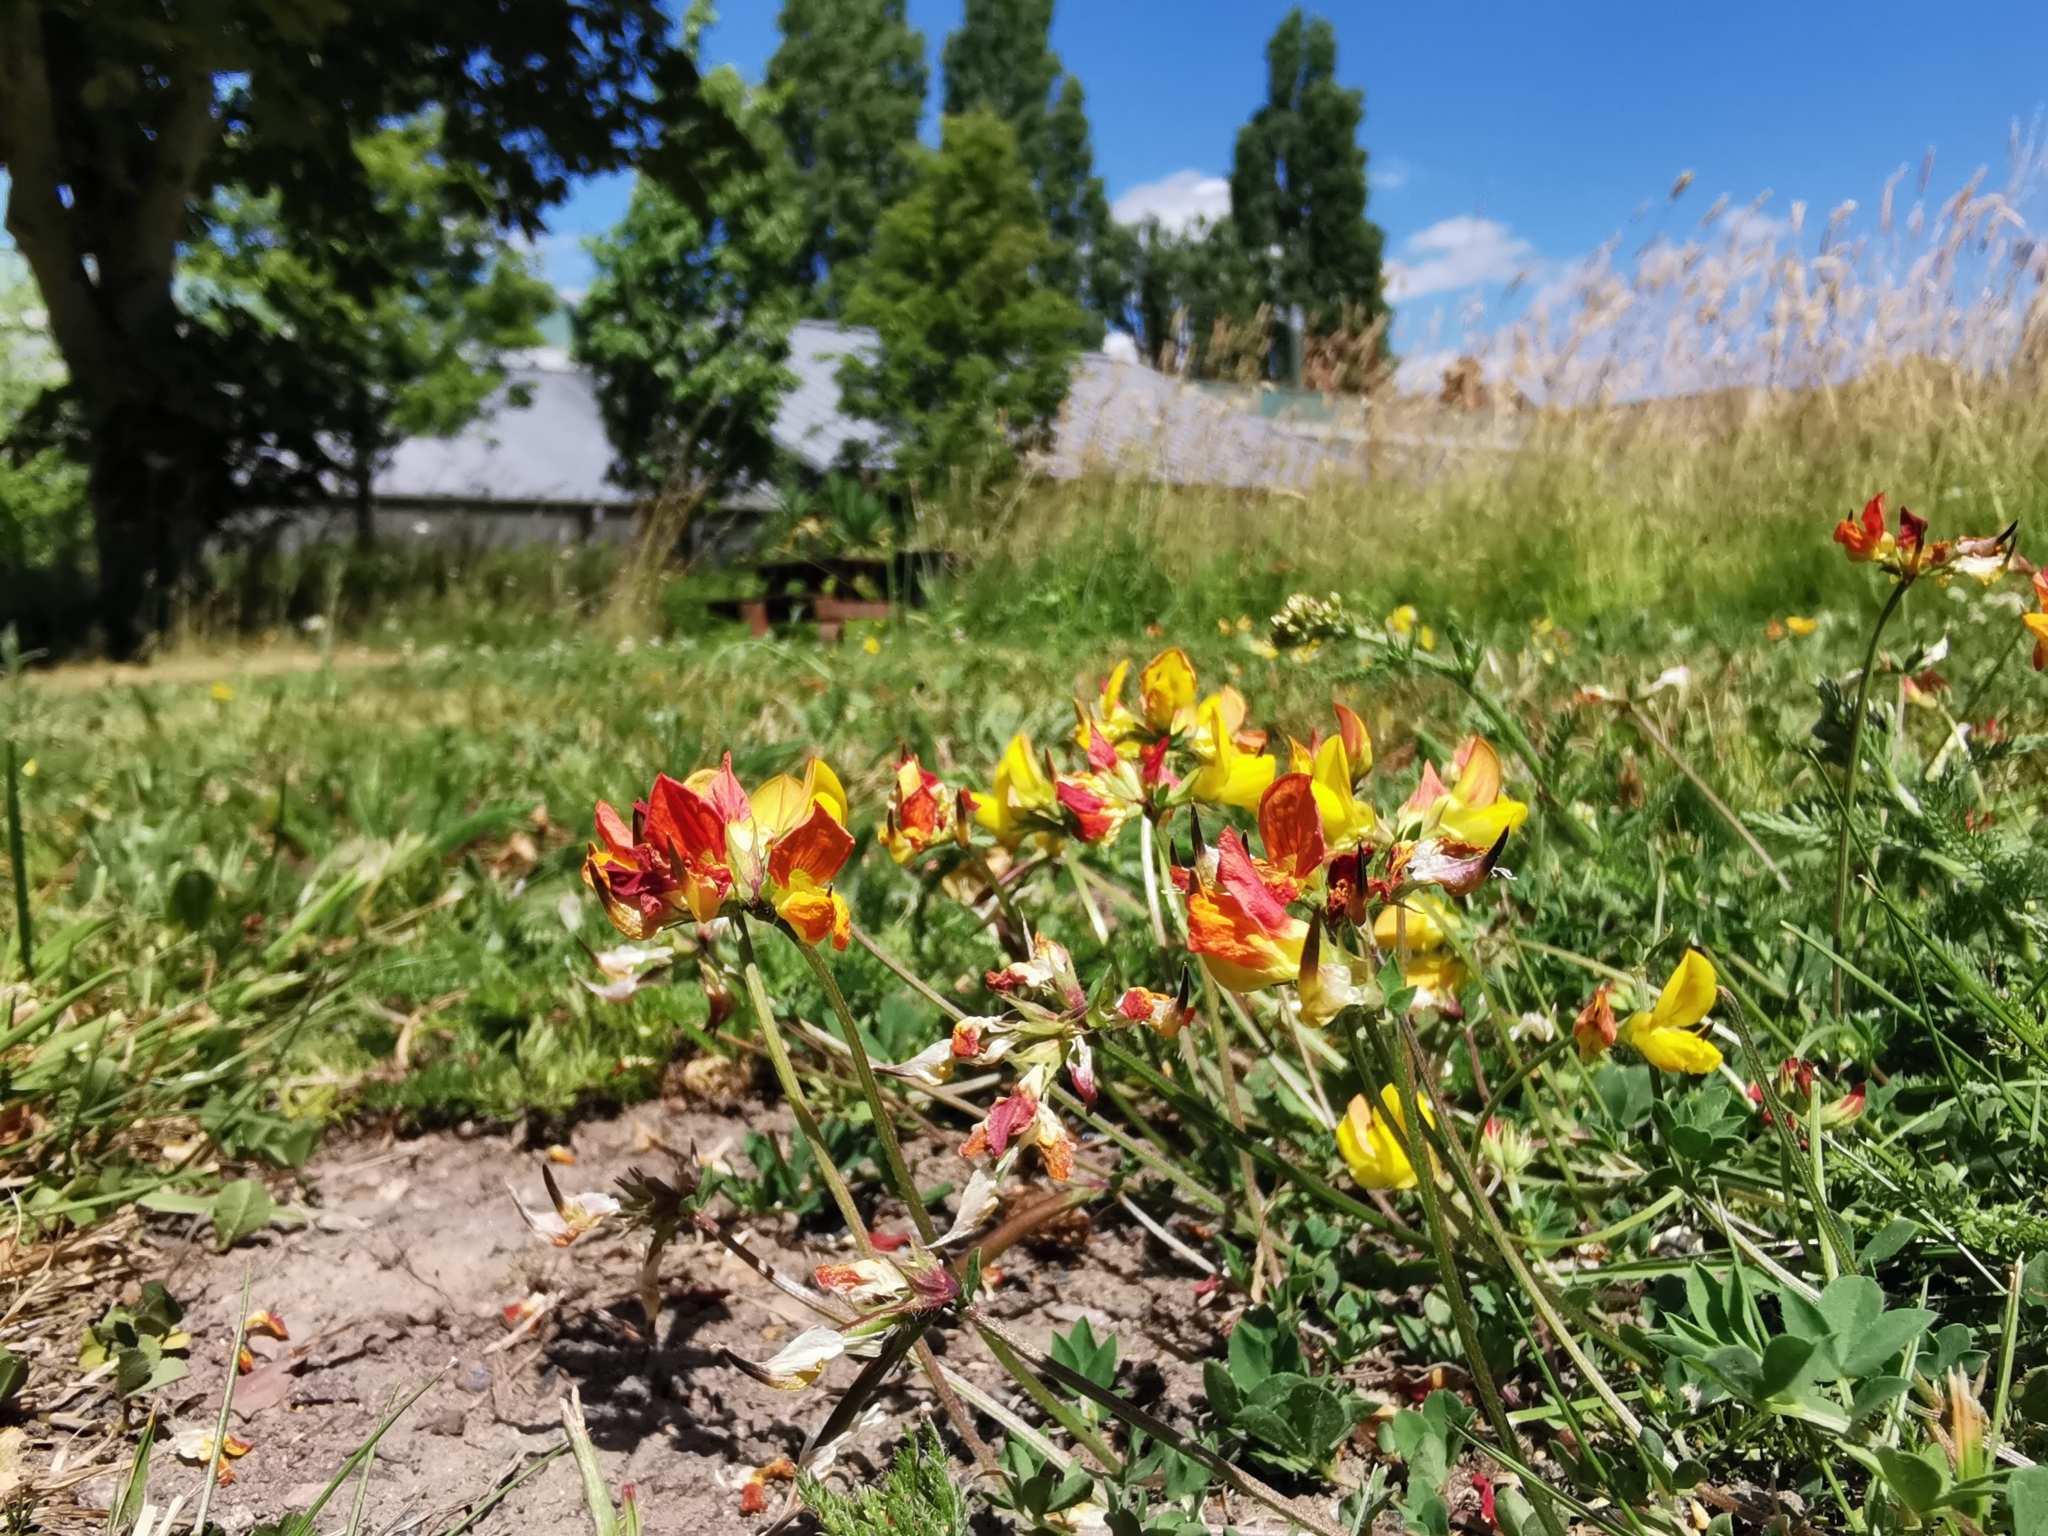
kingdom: Plantae
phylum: Tracheophyta
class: Magnoliopsida
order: Fabales
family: Fabaceae
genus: Lotus
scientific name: Lotus corniculatus
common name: Common bird's-foot-trefoil
